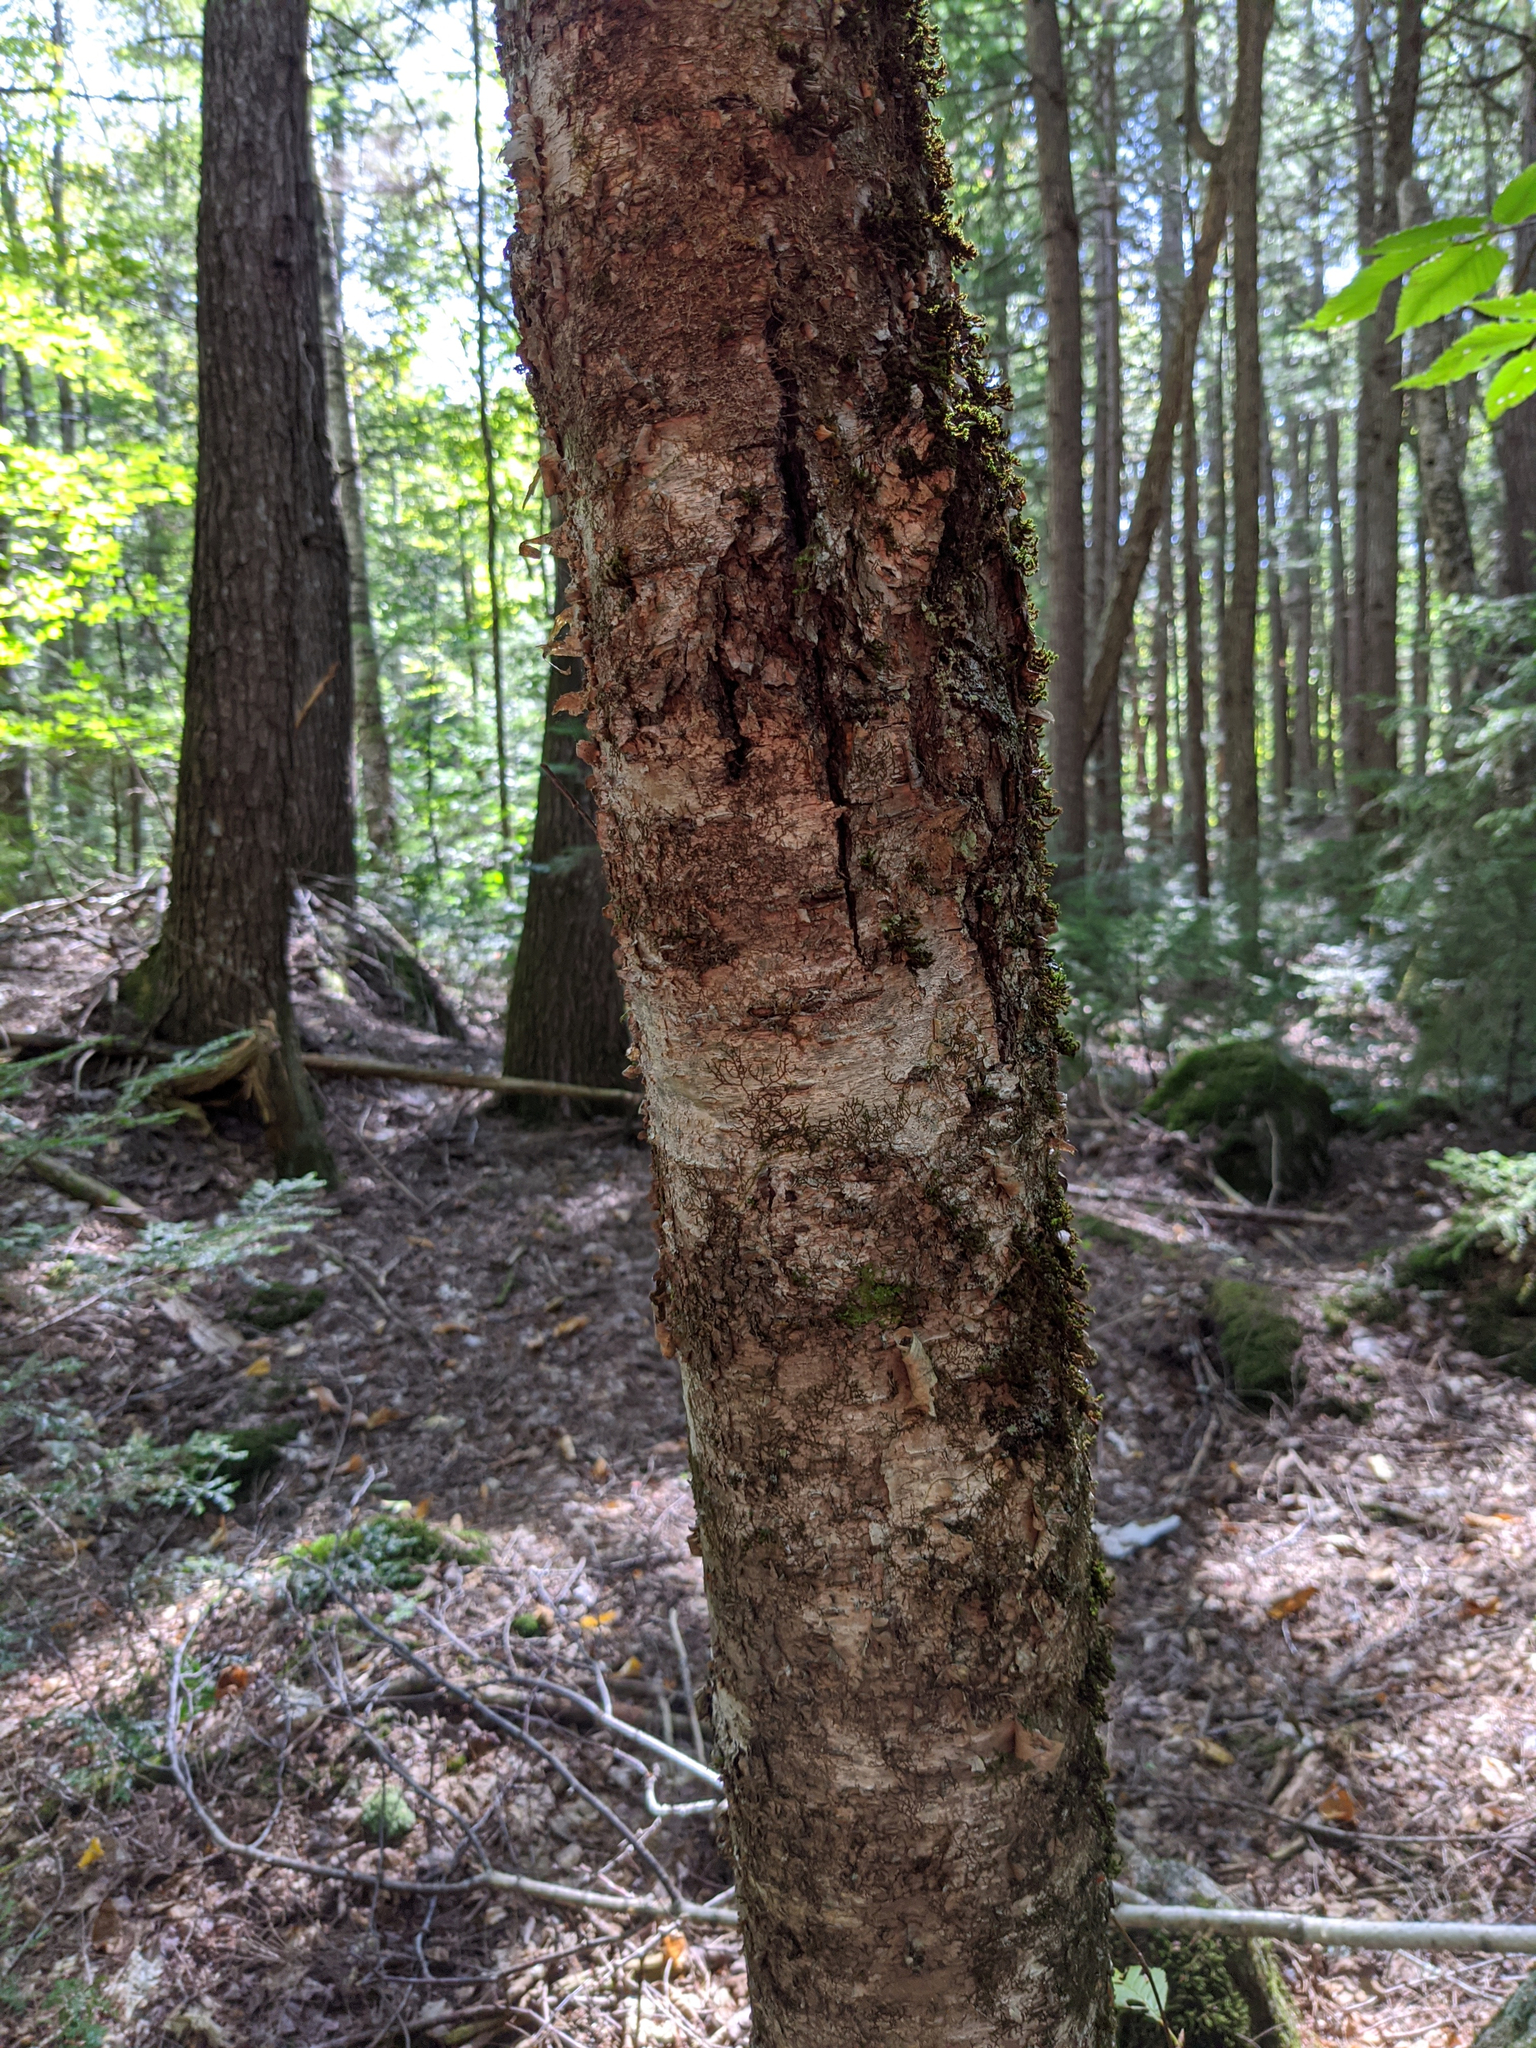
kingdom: Plantae
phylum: Tracheophyta
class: Magnoliopsida
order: Fagales
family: Betulaceae
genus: Betula
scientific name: Betula alleghaniensis
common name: Yellow birch
